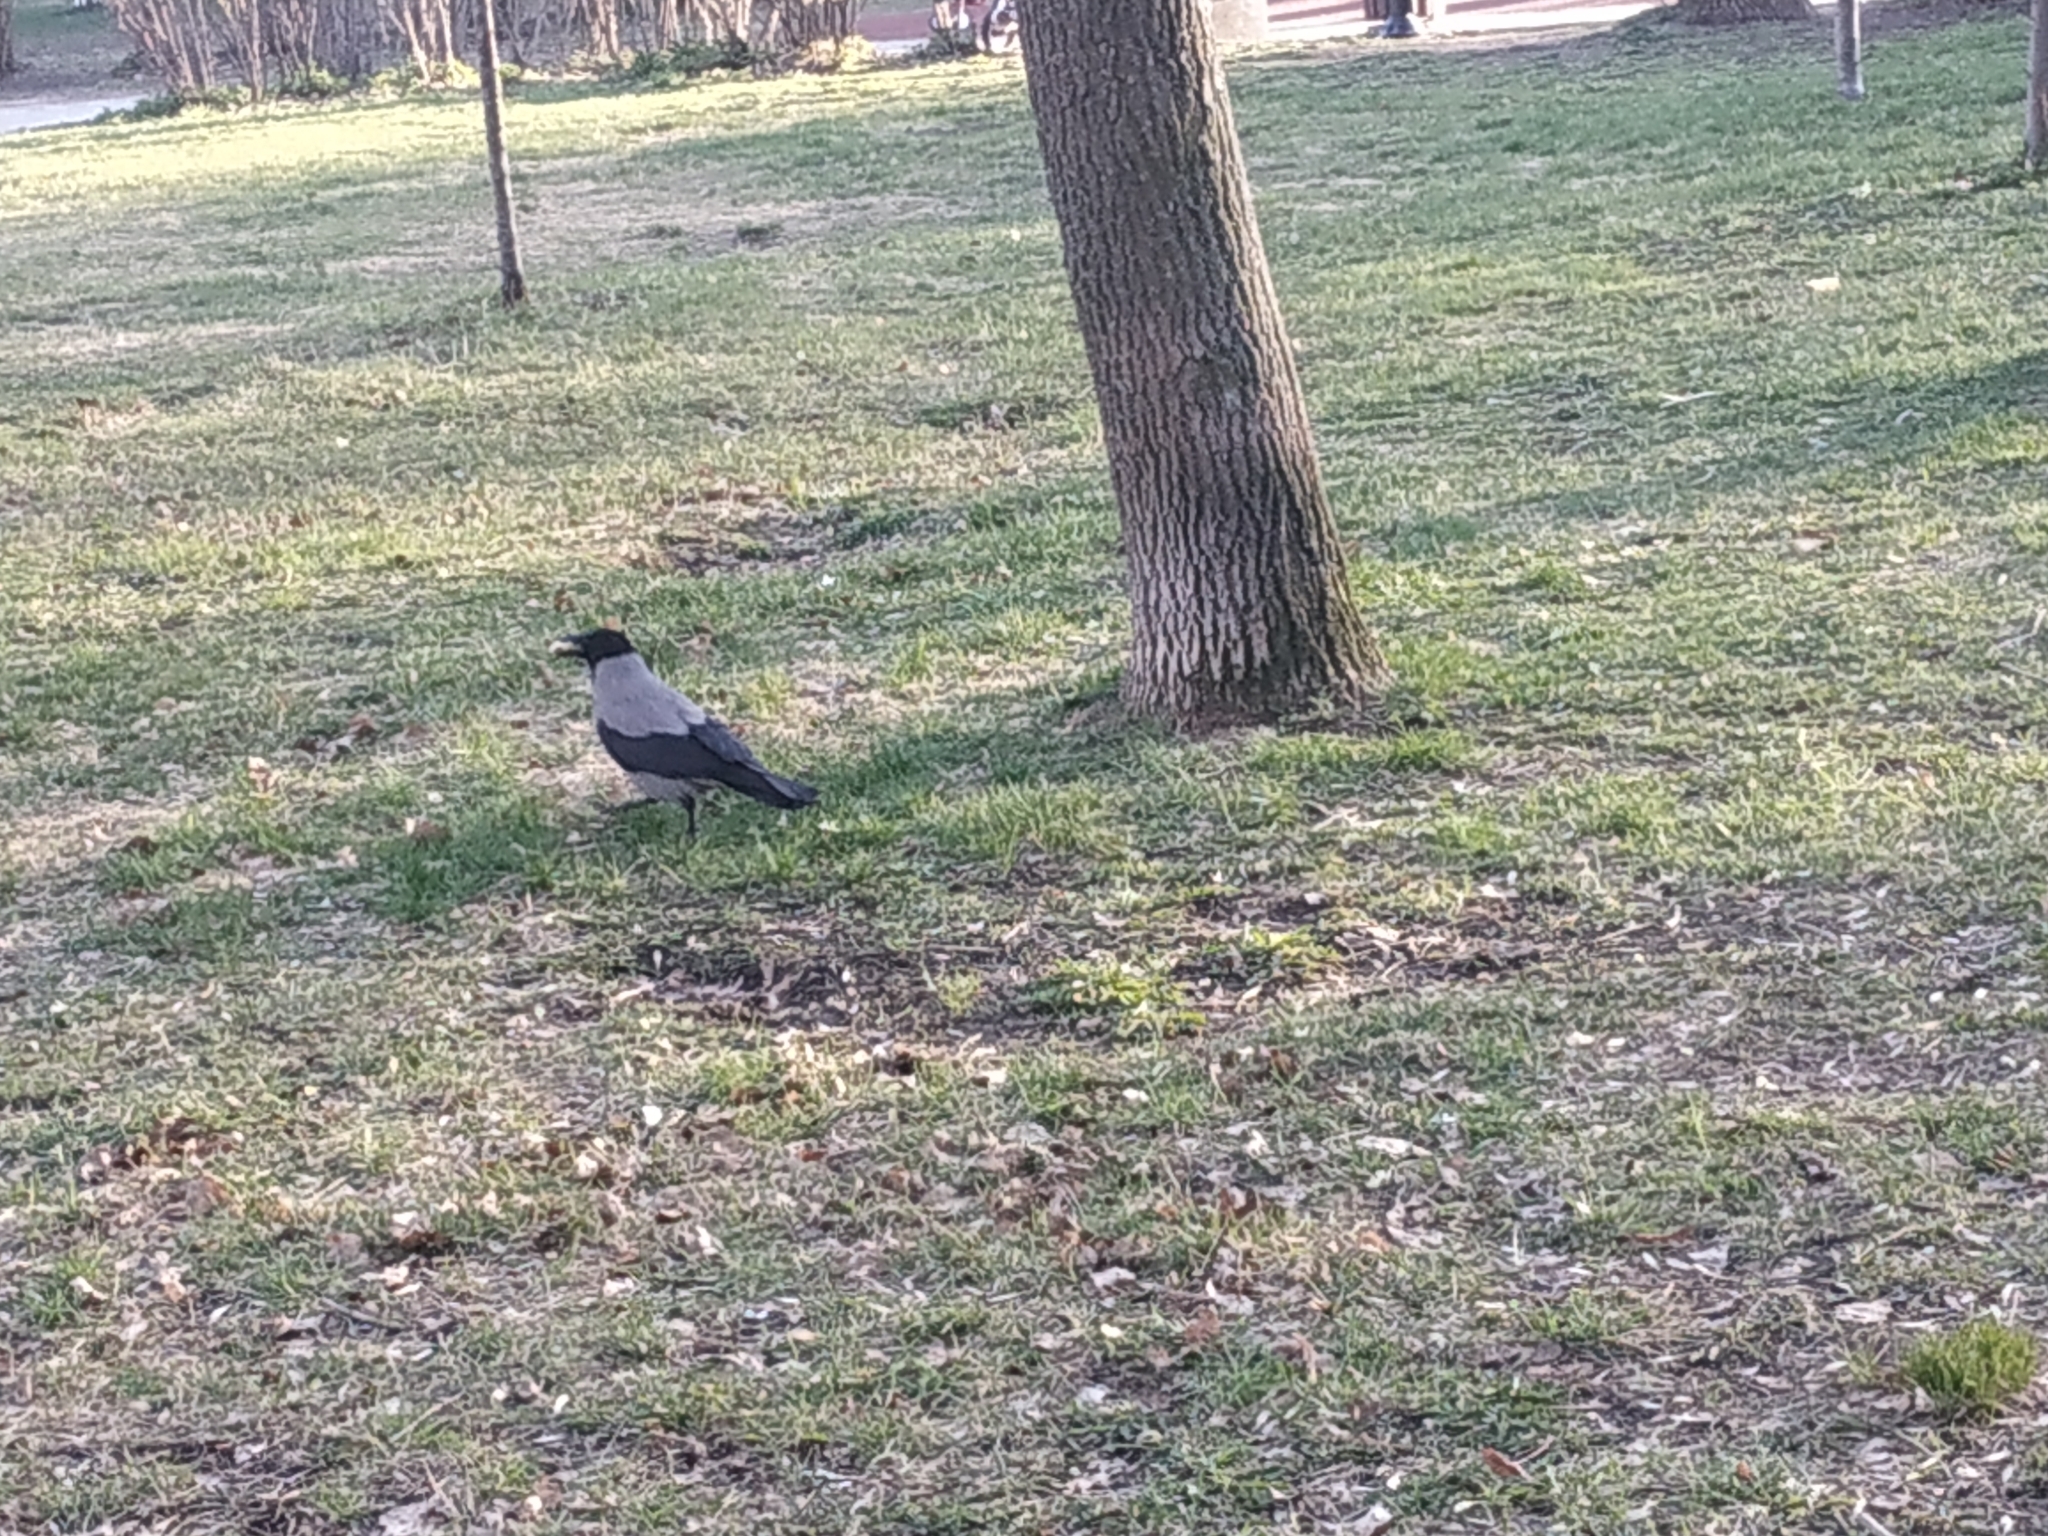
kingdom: Animalia
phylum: Chordata
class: Aves
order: Passeriformes
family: Corvidae
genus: Corvus
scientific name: Corvus cornix
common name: Hooded crow
